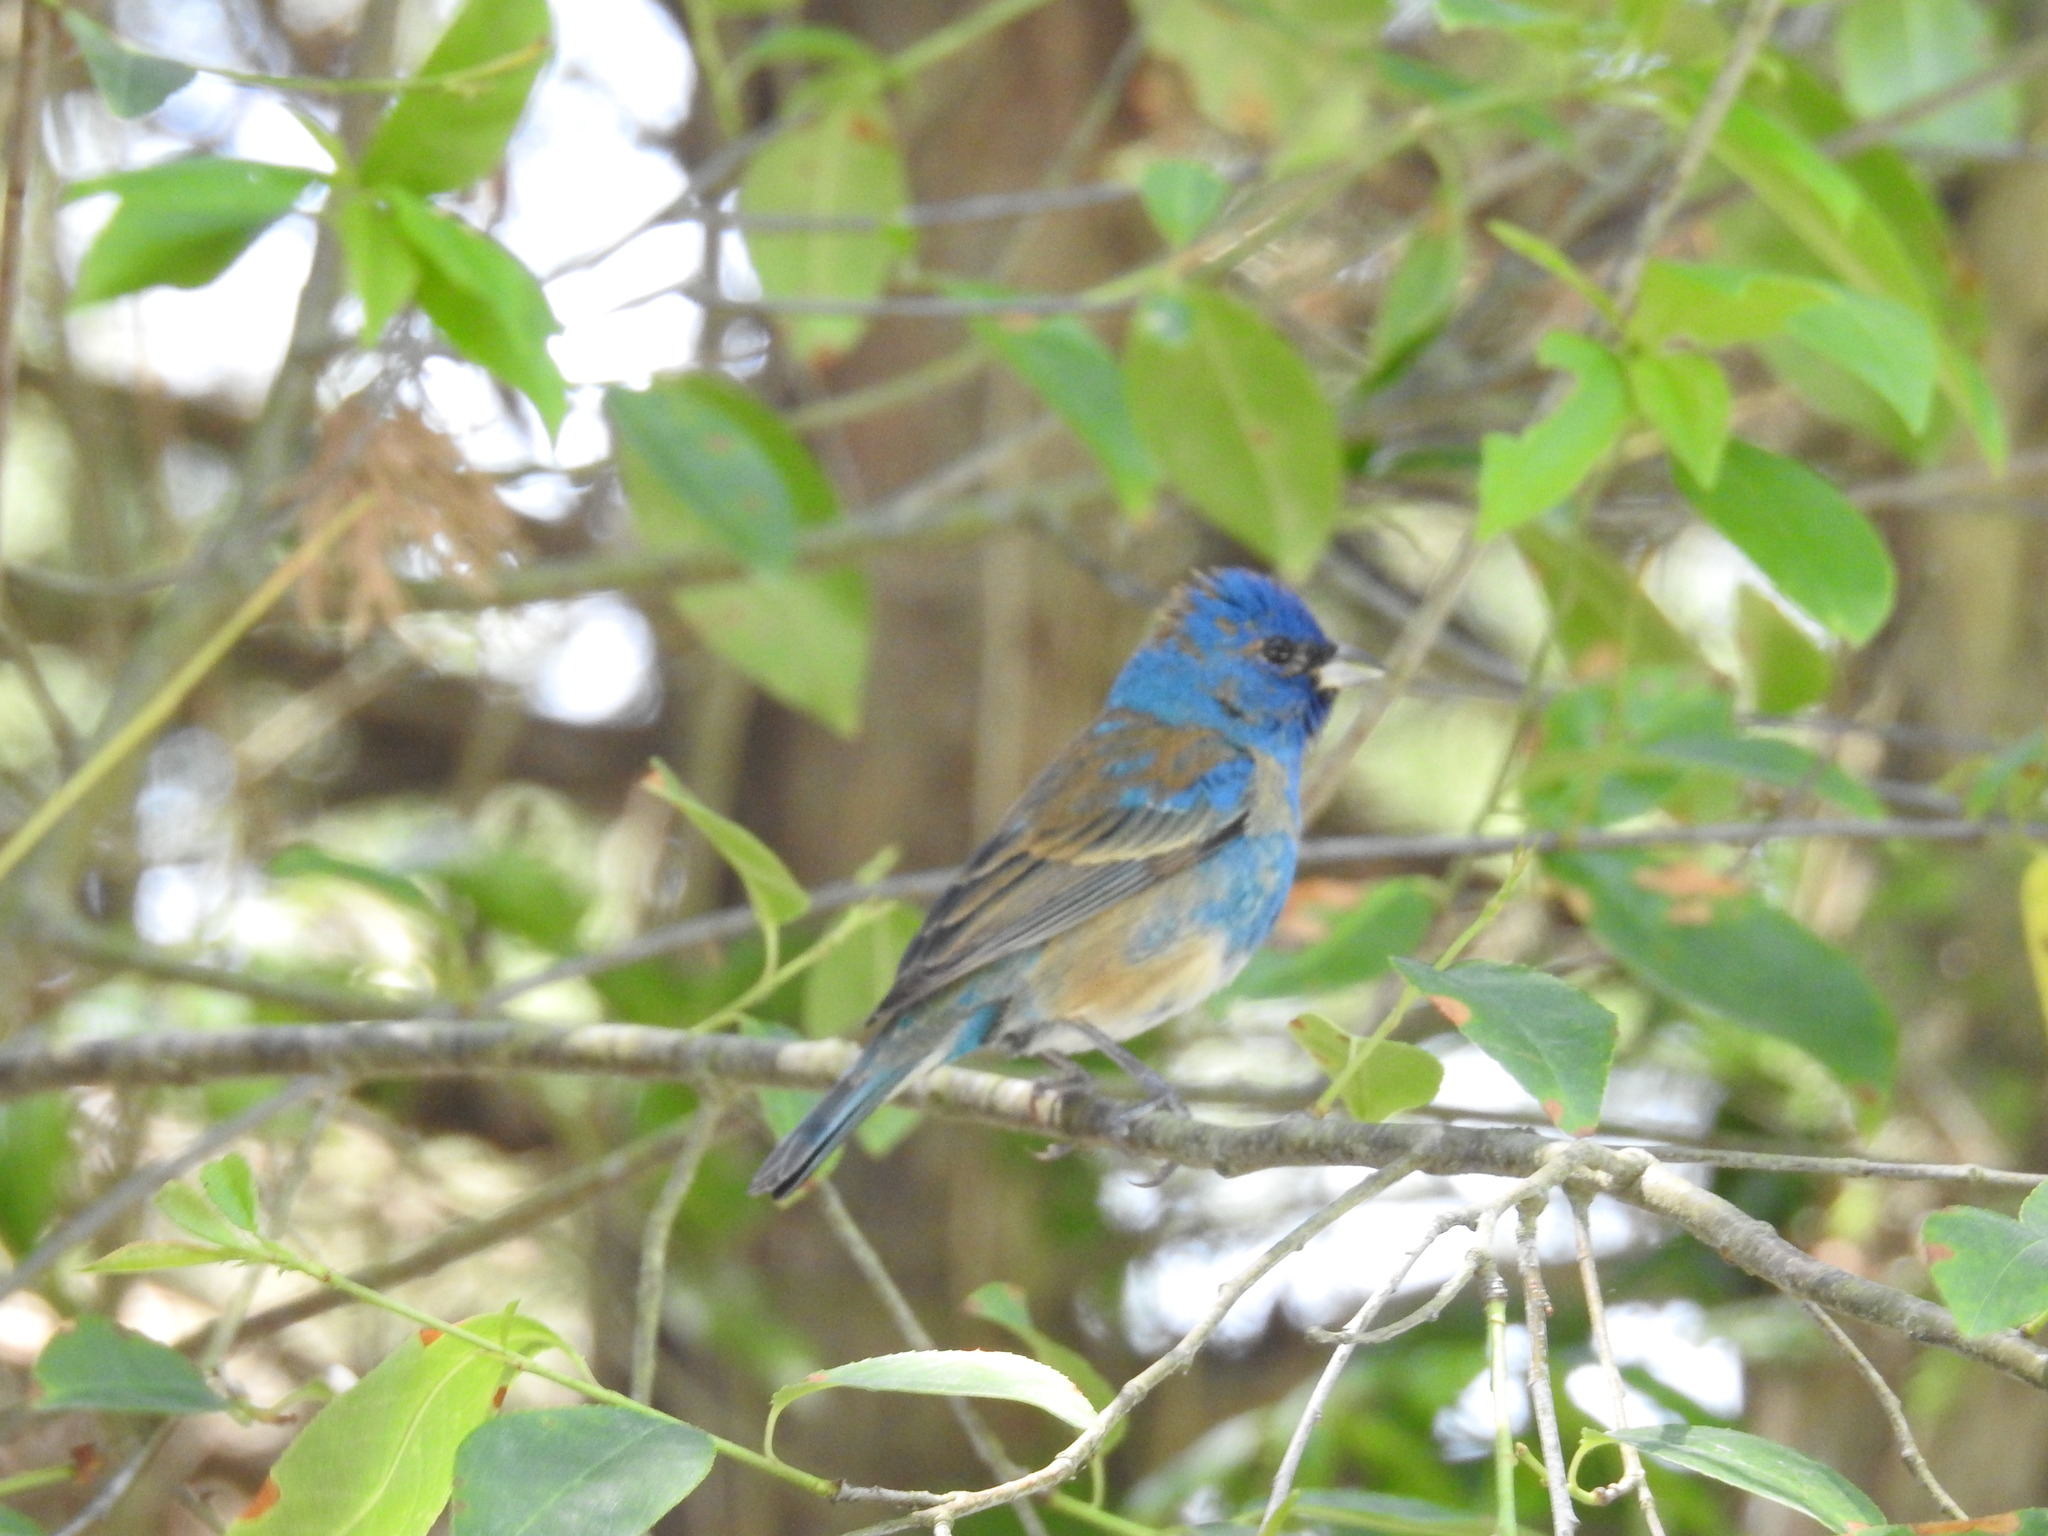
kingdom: Animalia
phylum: Chordata
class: Aves
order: Passeriformes
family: Cardinalidae
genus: Passerina
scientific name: Passerina cyanea
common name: Indigo bunting
